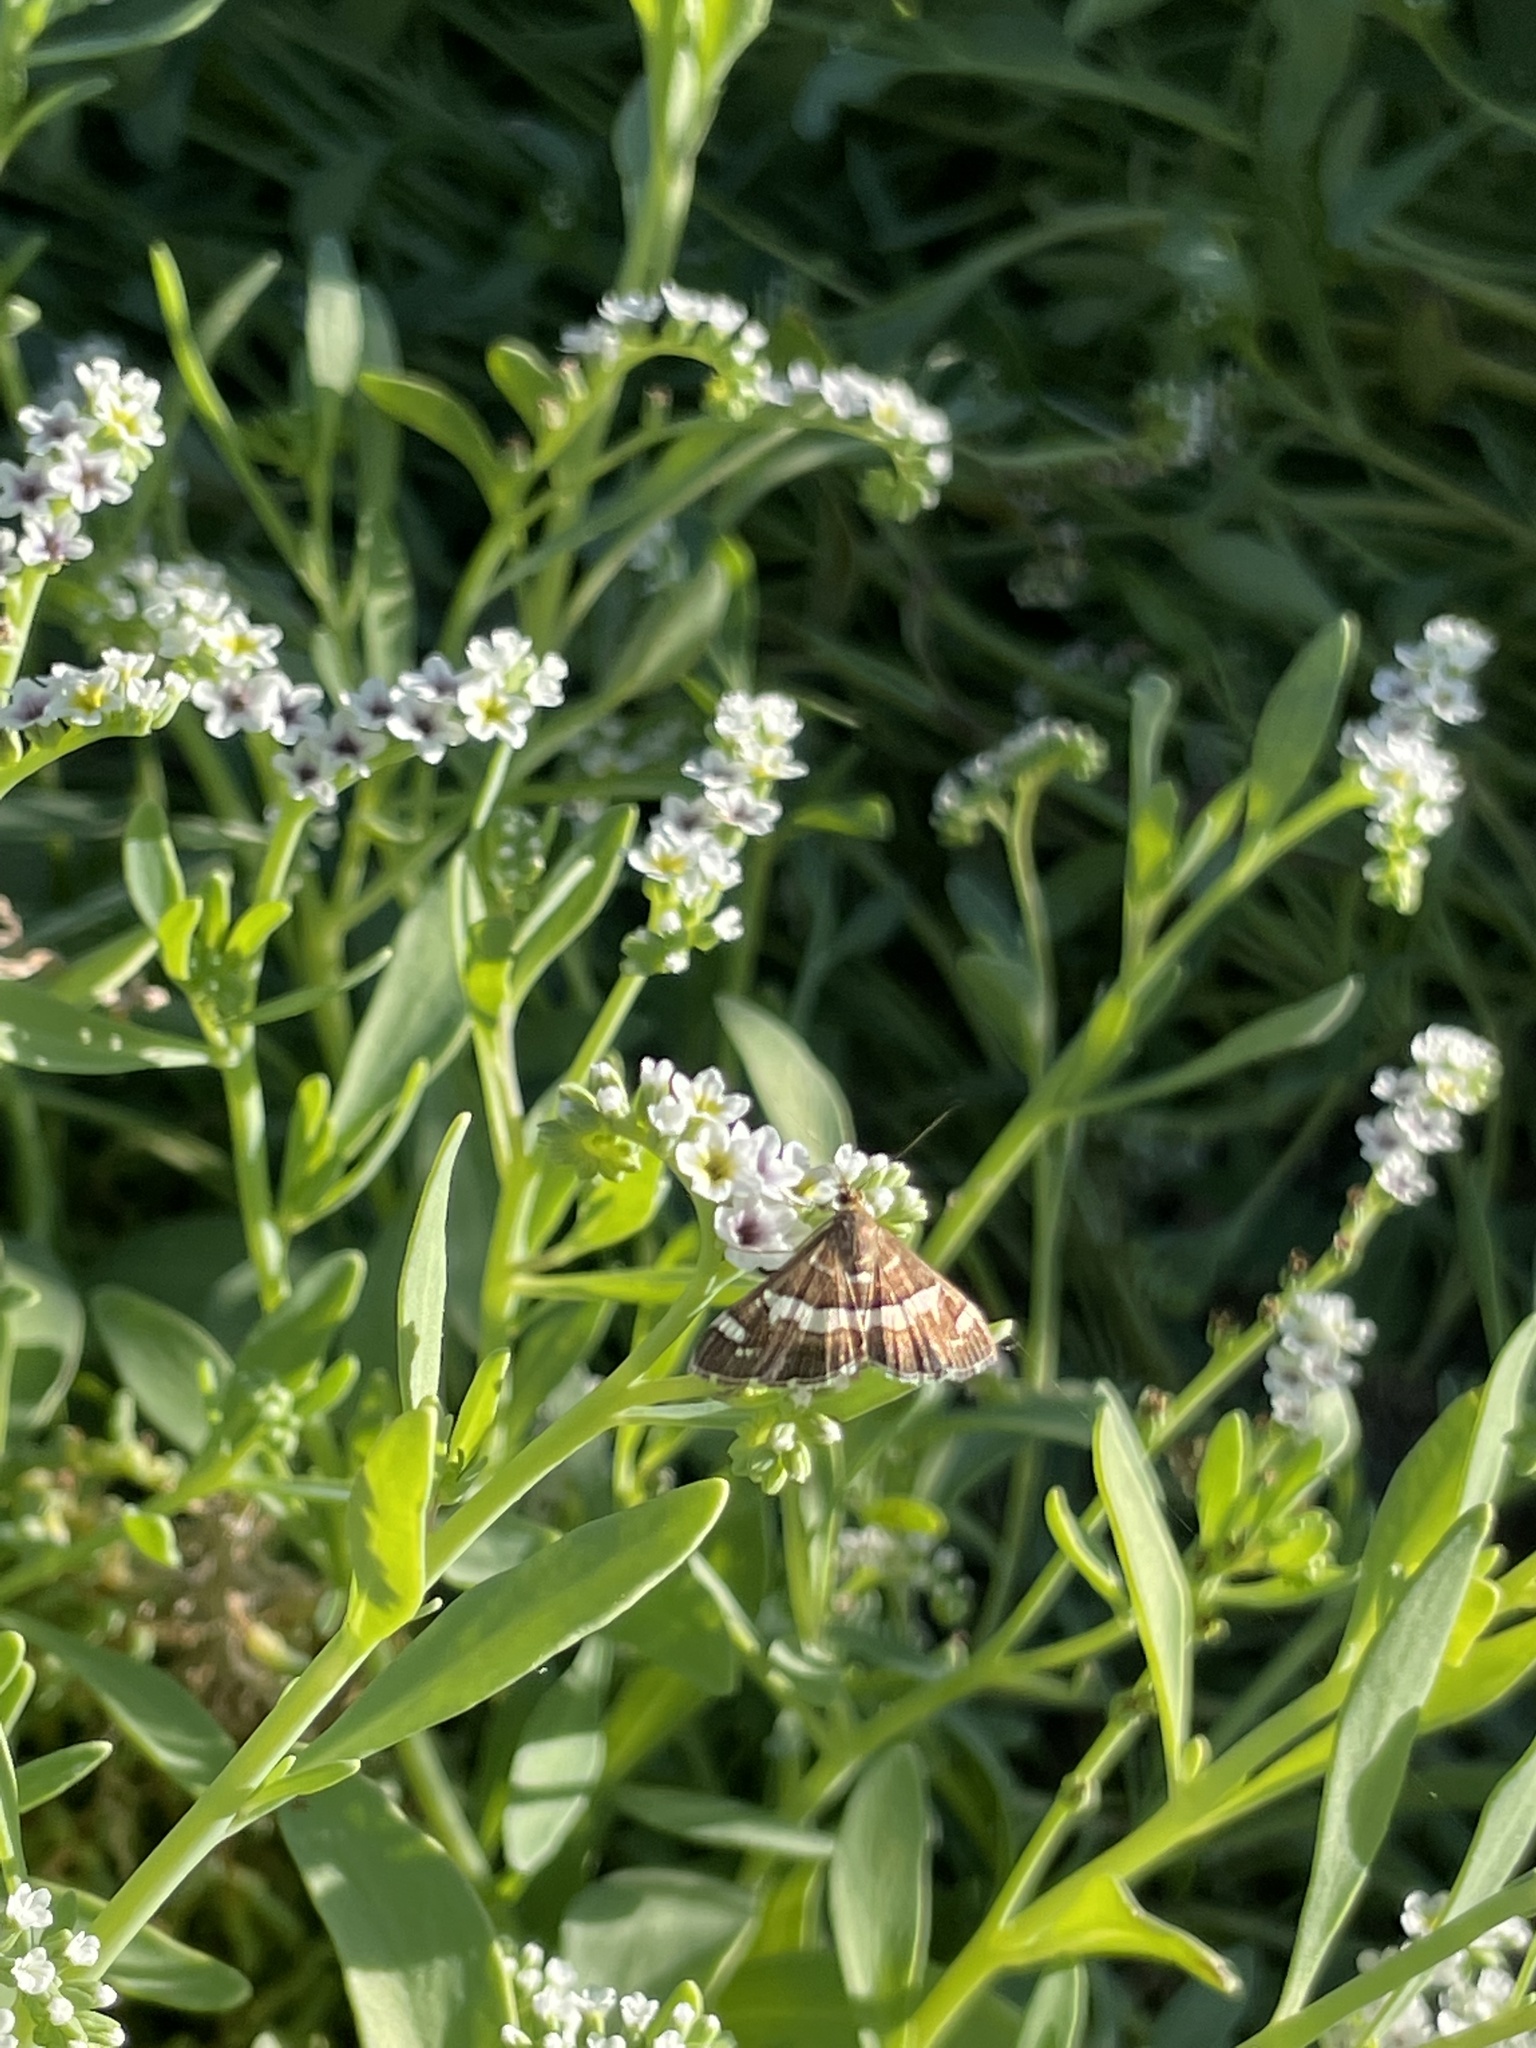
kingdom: Animalia
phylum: Arthropoda
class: Insecta
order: Lepidoptera
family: Crambidae
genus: Spoladea
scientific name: Spoladea recurvalis
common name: Beet webworm moth
